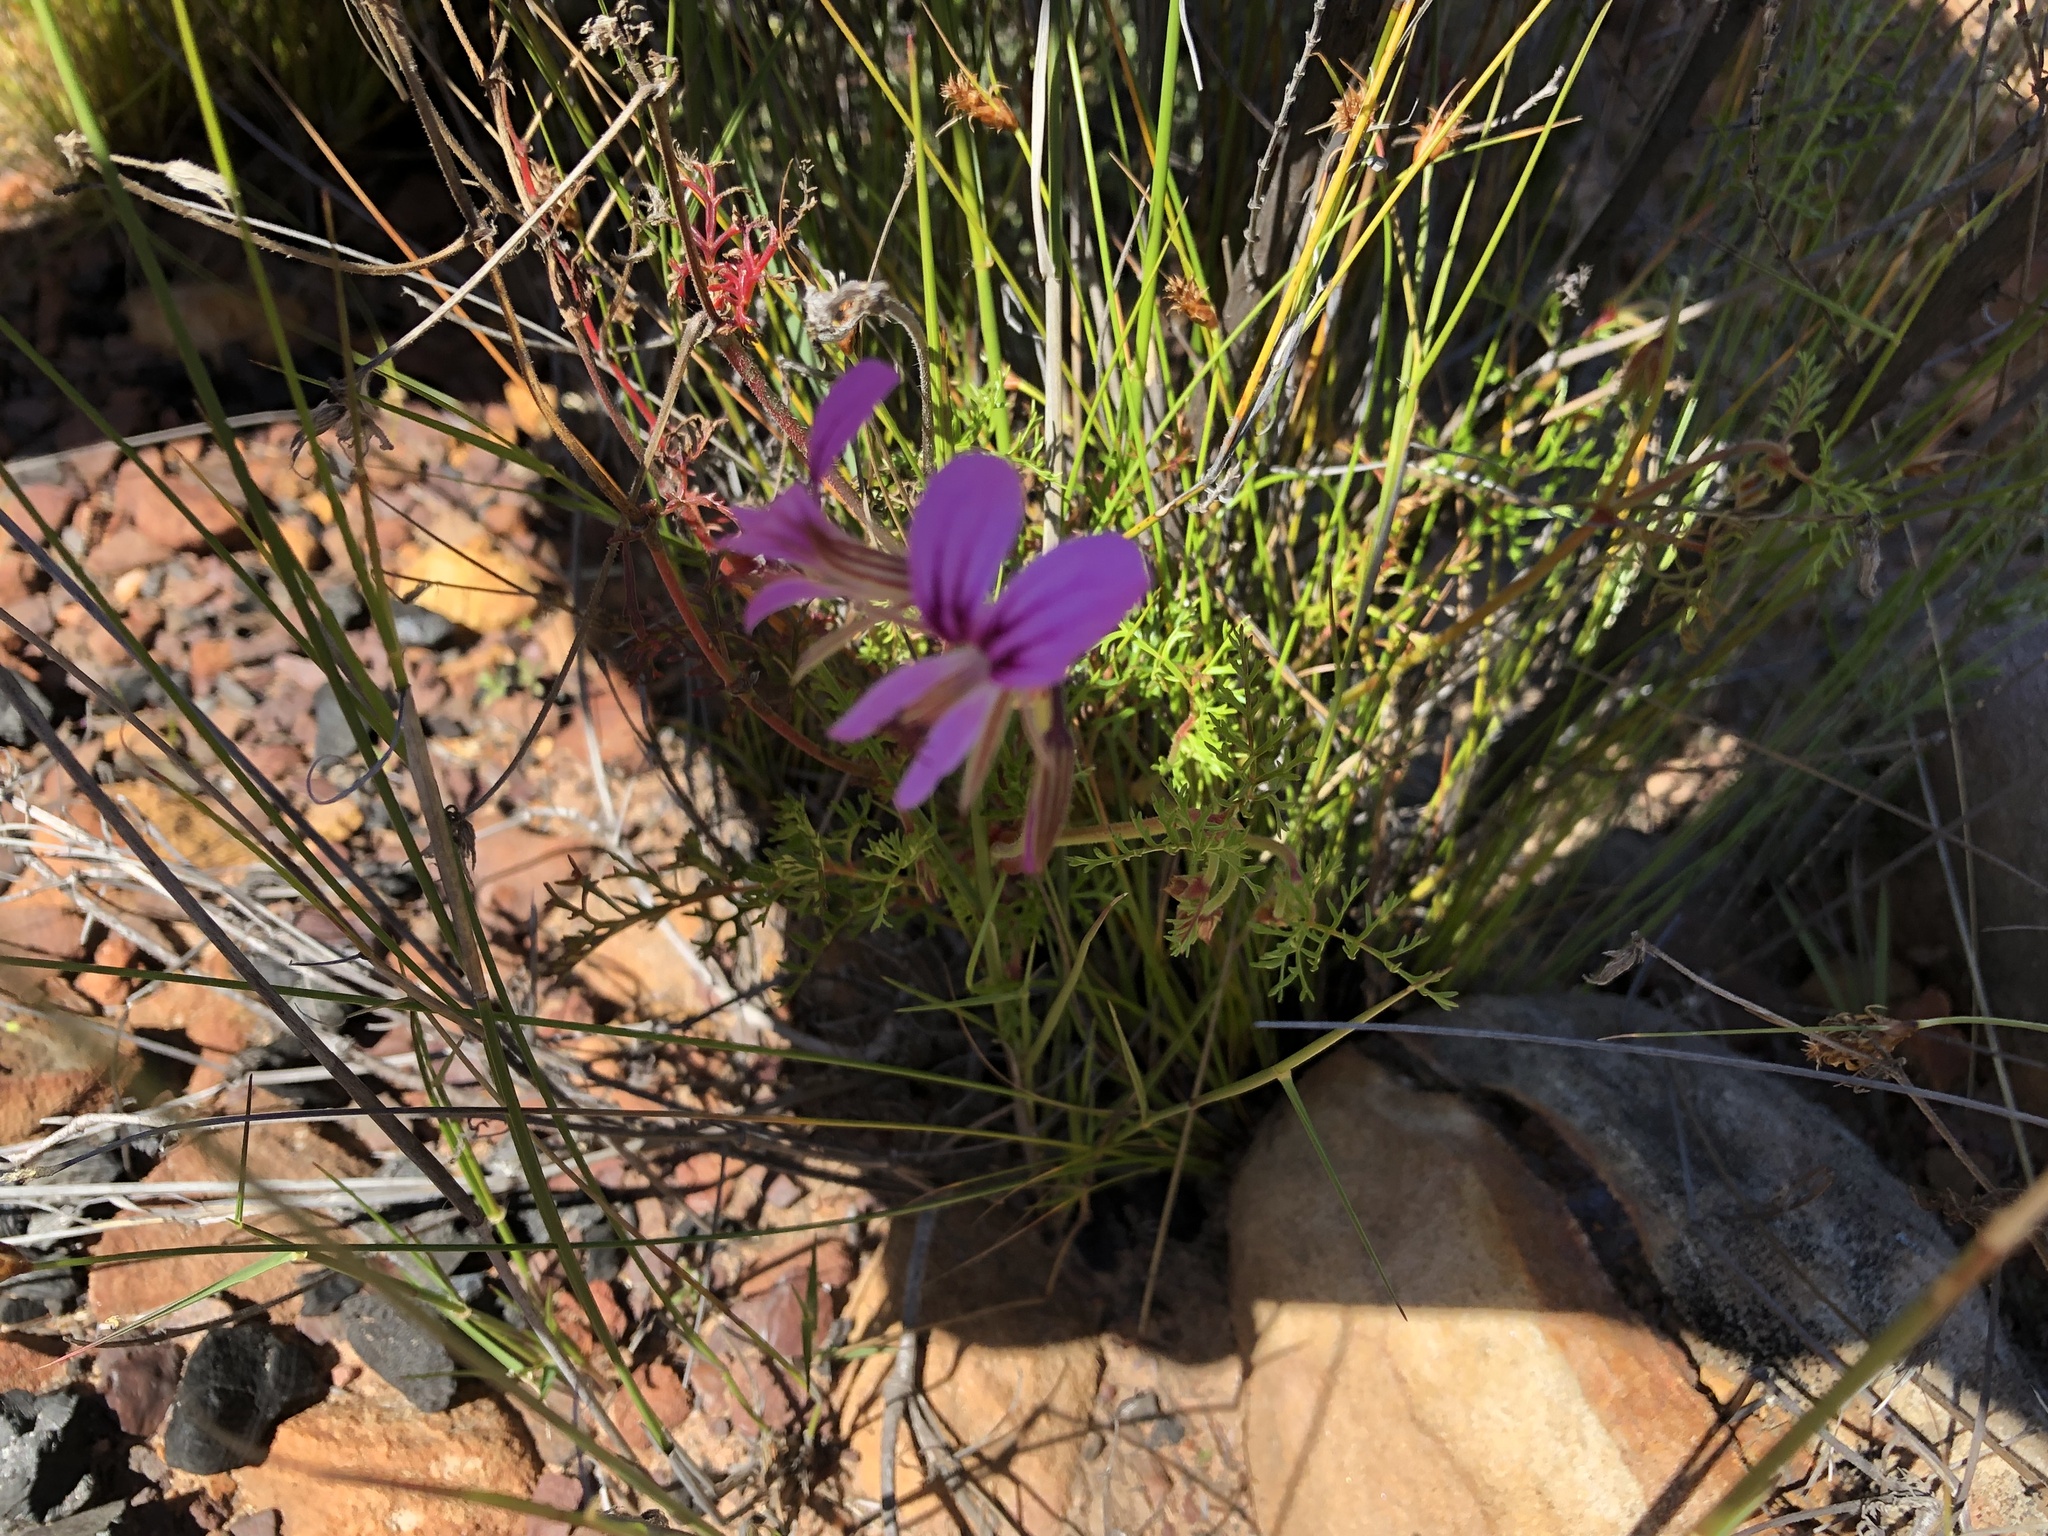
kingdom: Plantae
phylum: Tracheophyta
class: Magnoliopsida
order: Geraniales
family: Geraniaceae
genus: Pelargonium
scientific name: Pelargonium myrrhifolium
